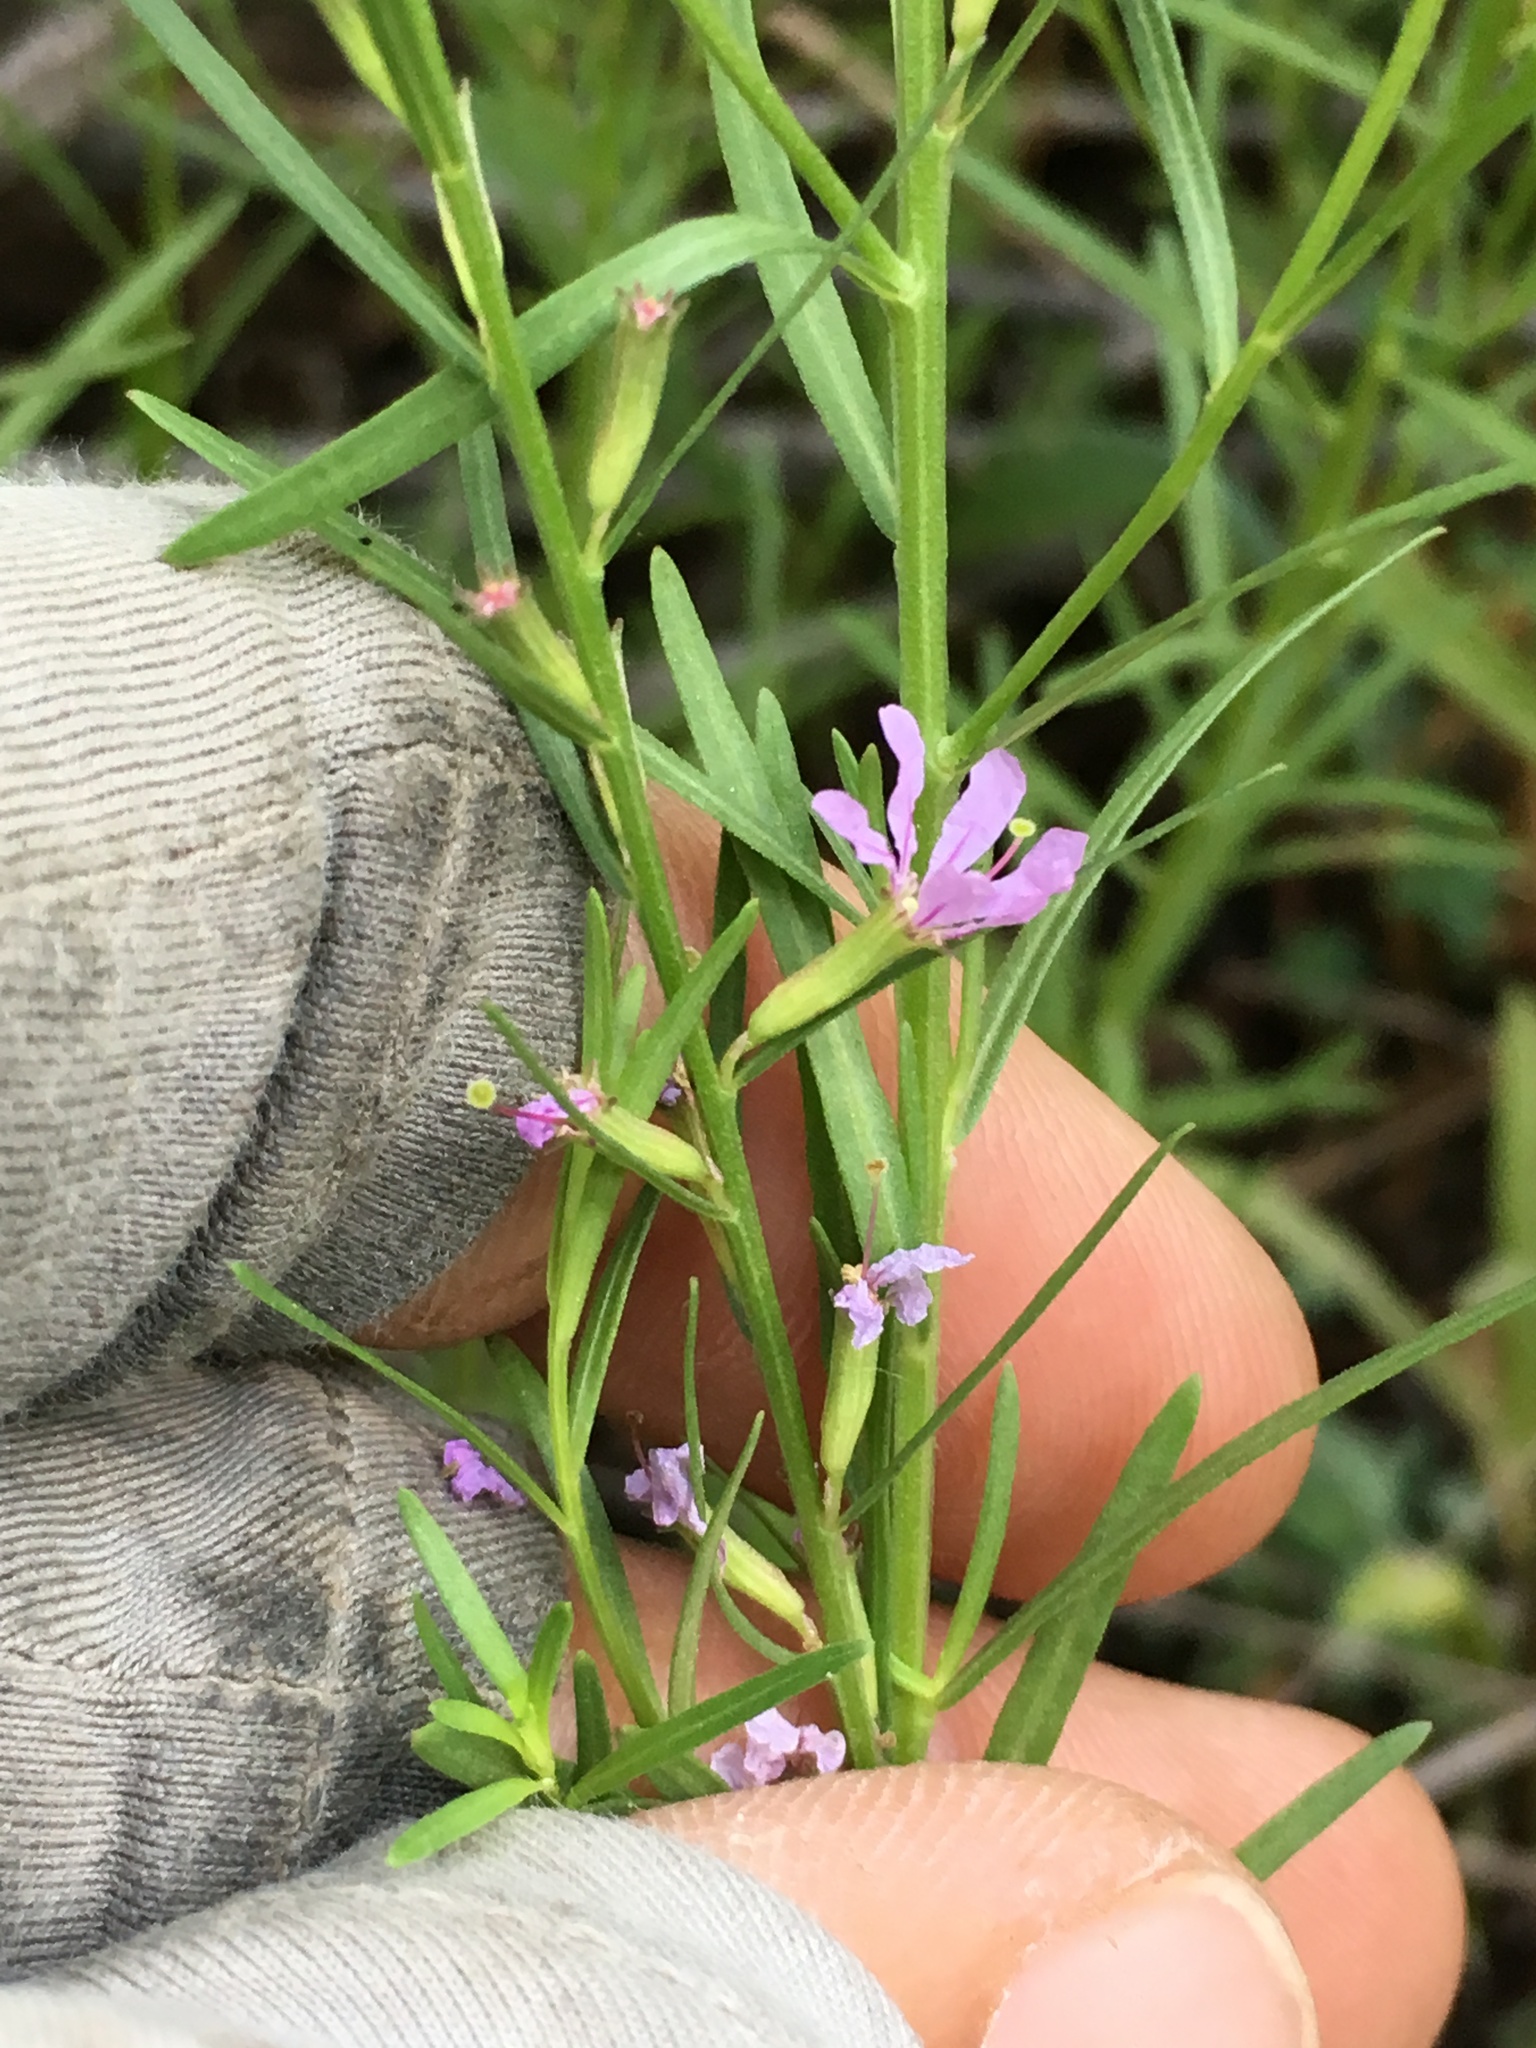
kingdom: Plantae
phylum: Tracheophyta
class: Magnoliopsida
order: Myrtales
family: Lythraceae
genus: Lythrum
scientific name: Lythrum californicum
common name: California loosestrife
